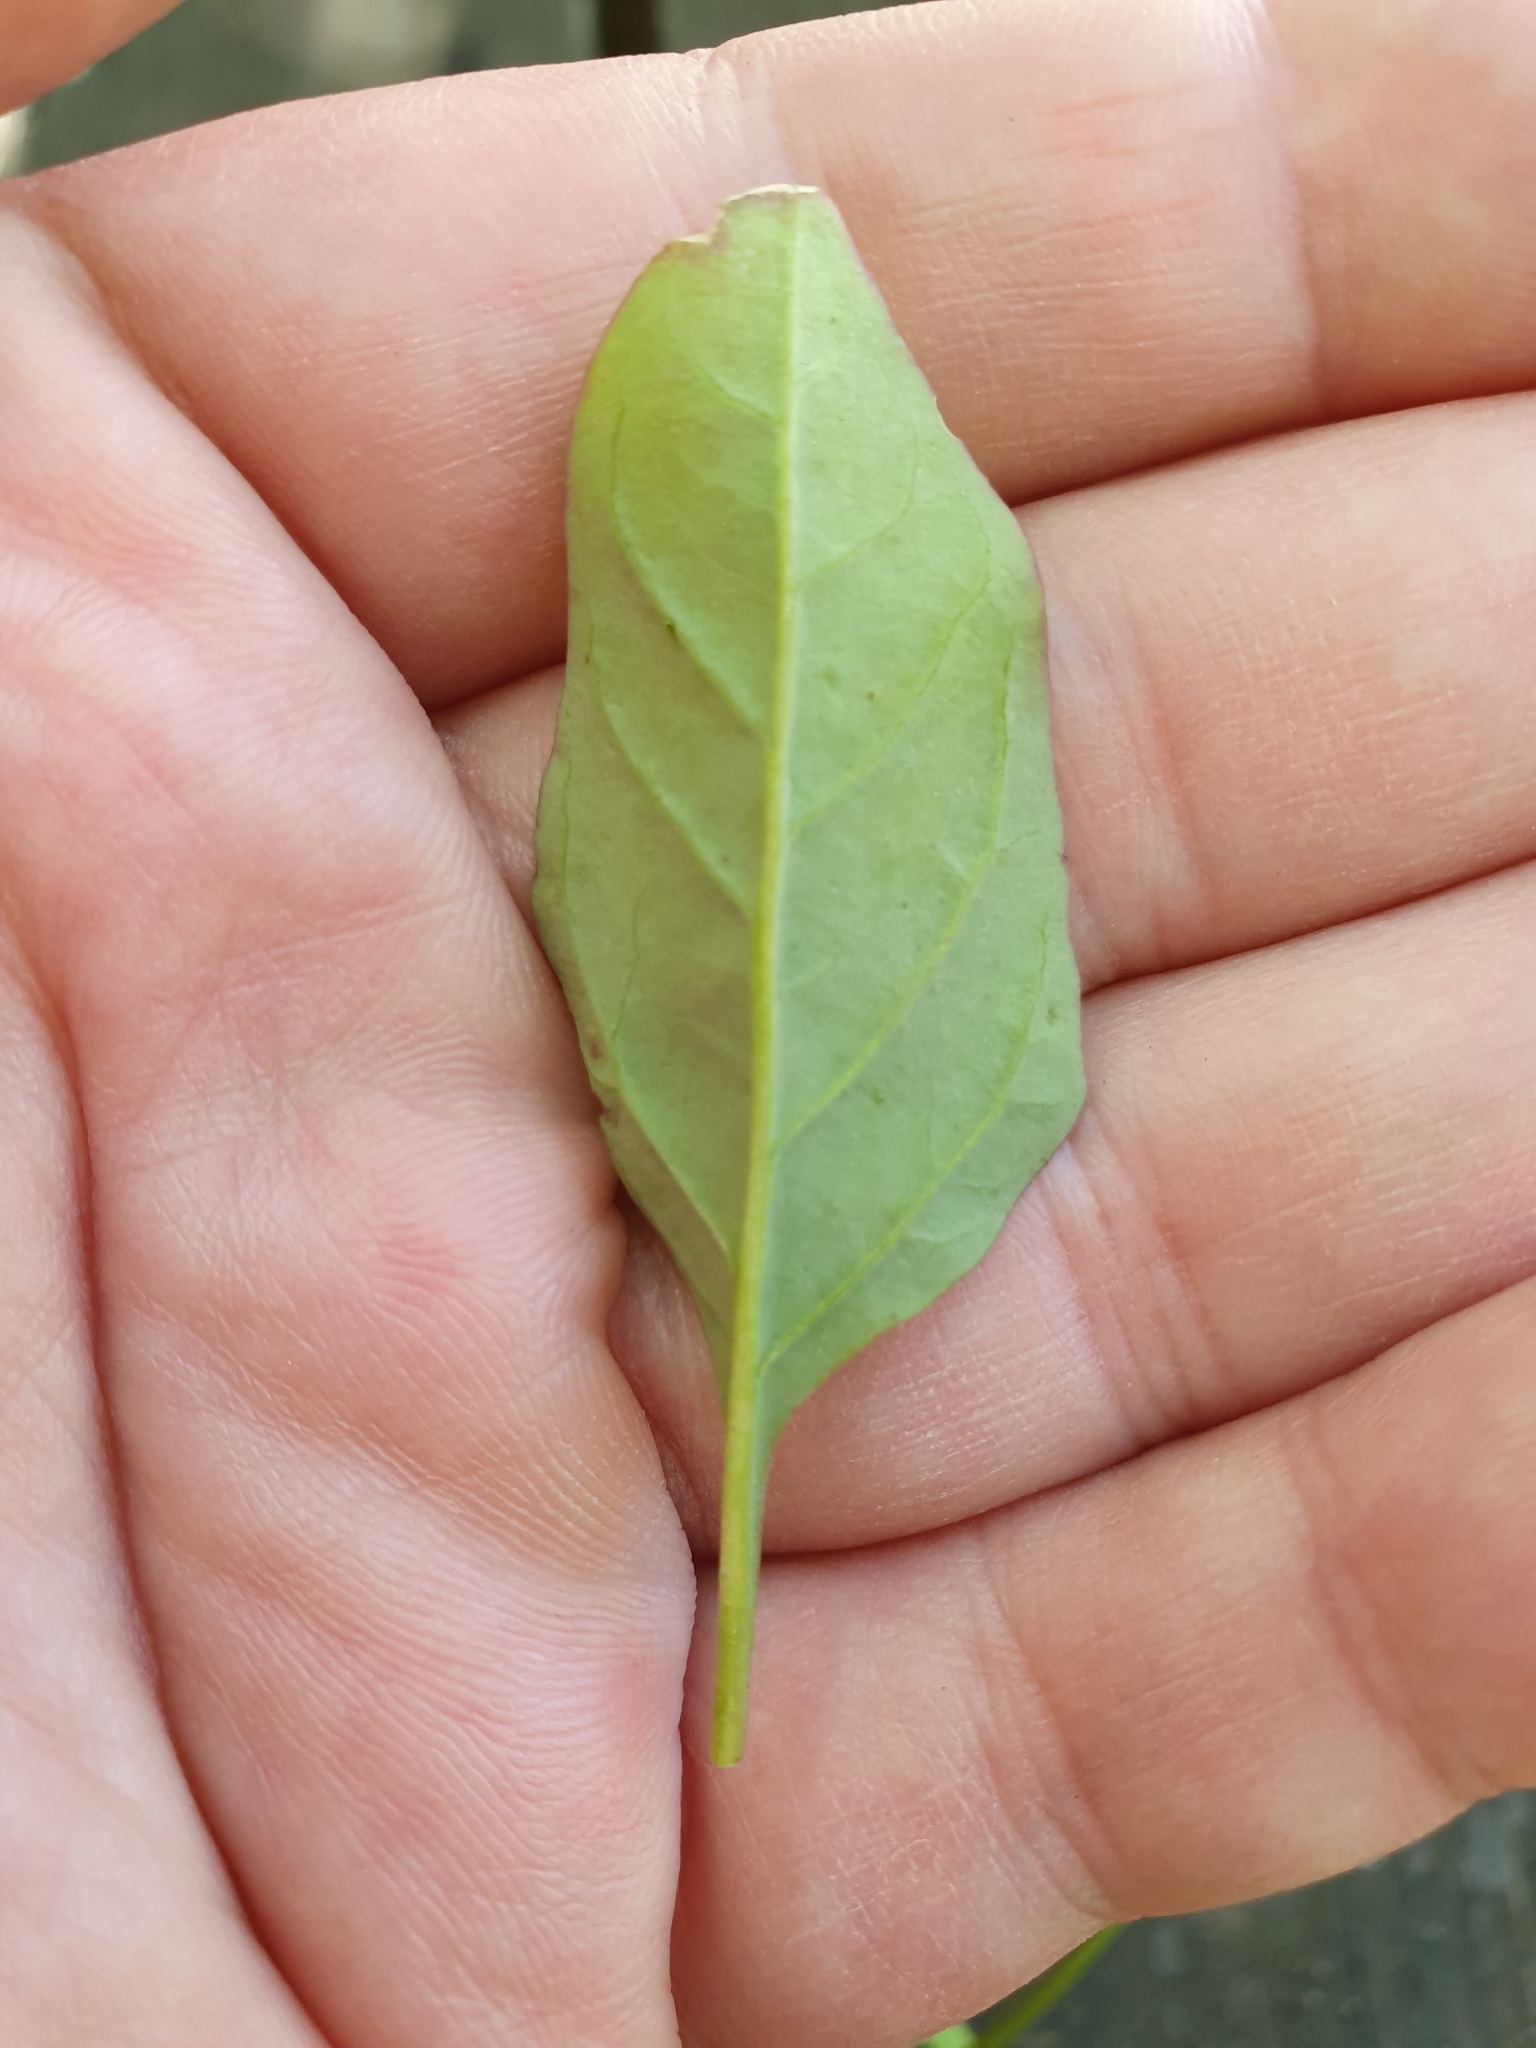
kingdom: Plantae
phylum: Tracheophyta
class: Magnoliopsida
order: Caryophyllales
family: Amaranthaceae
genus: Lipandra
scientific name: Lipandra polysperma
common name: Many-seed goosefoot
